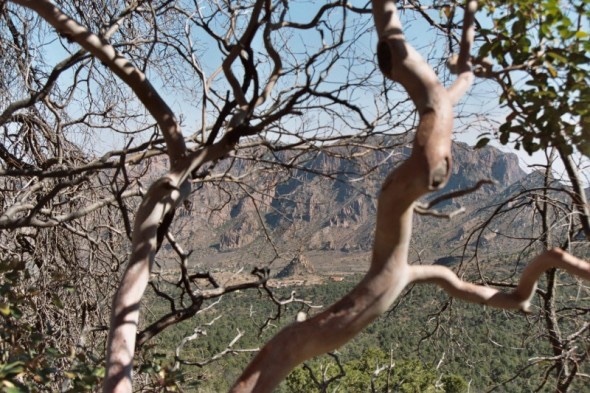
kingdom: Plantae
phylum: Tracheophyta
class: Magnoliopsida
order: Ericales
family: Ericaceae
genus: Arbutus
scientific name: Arbutus xalapensis
